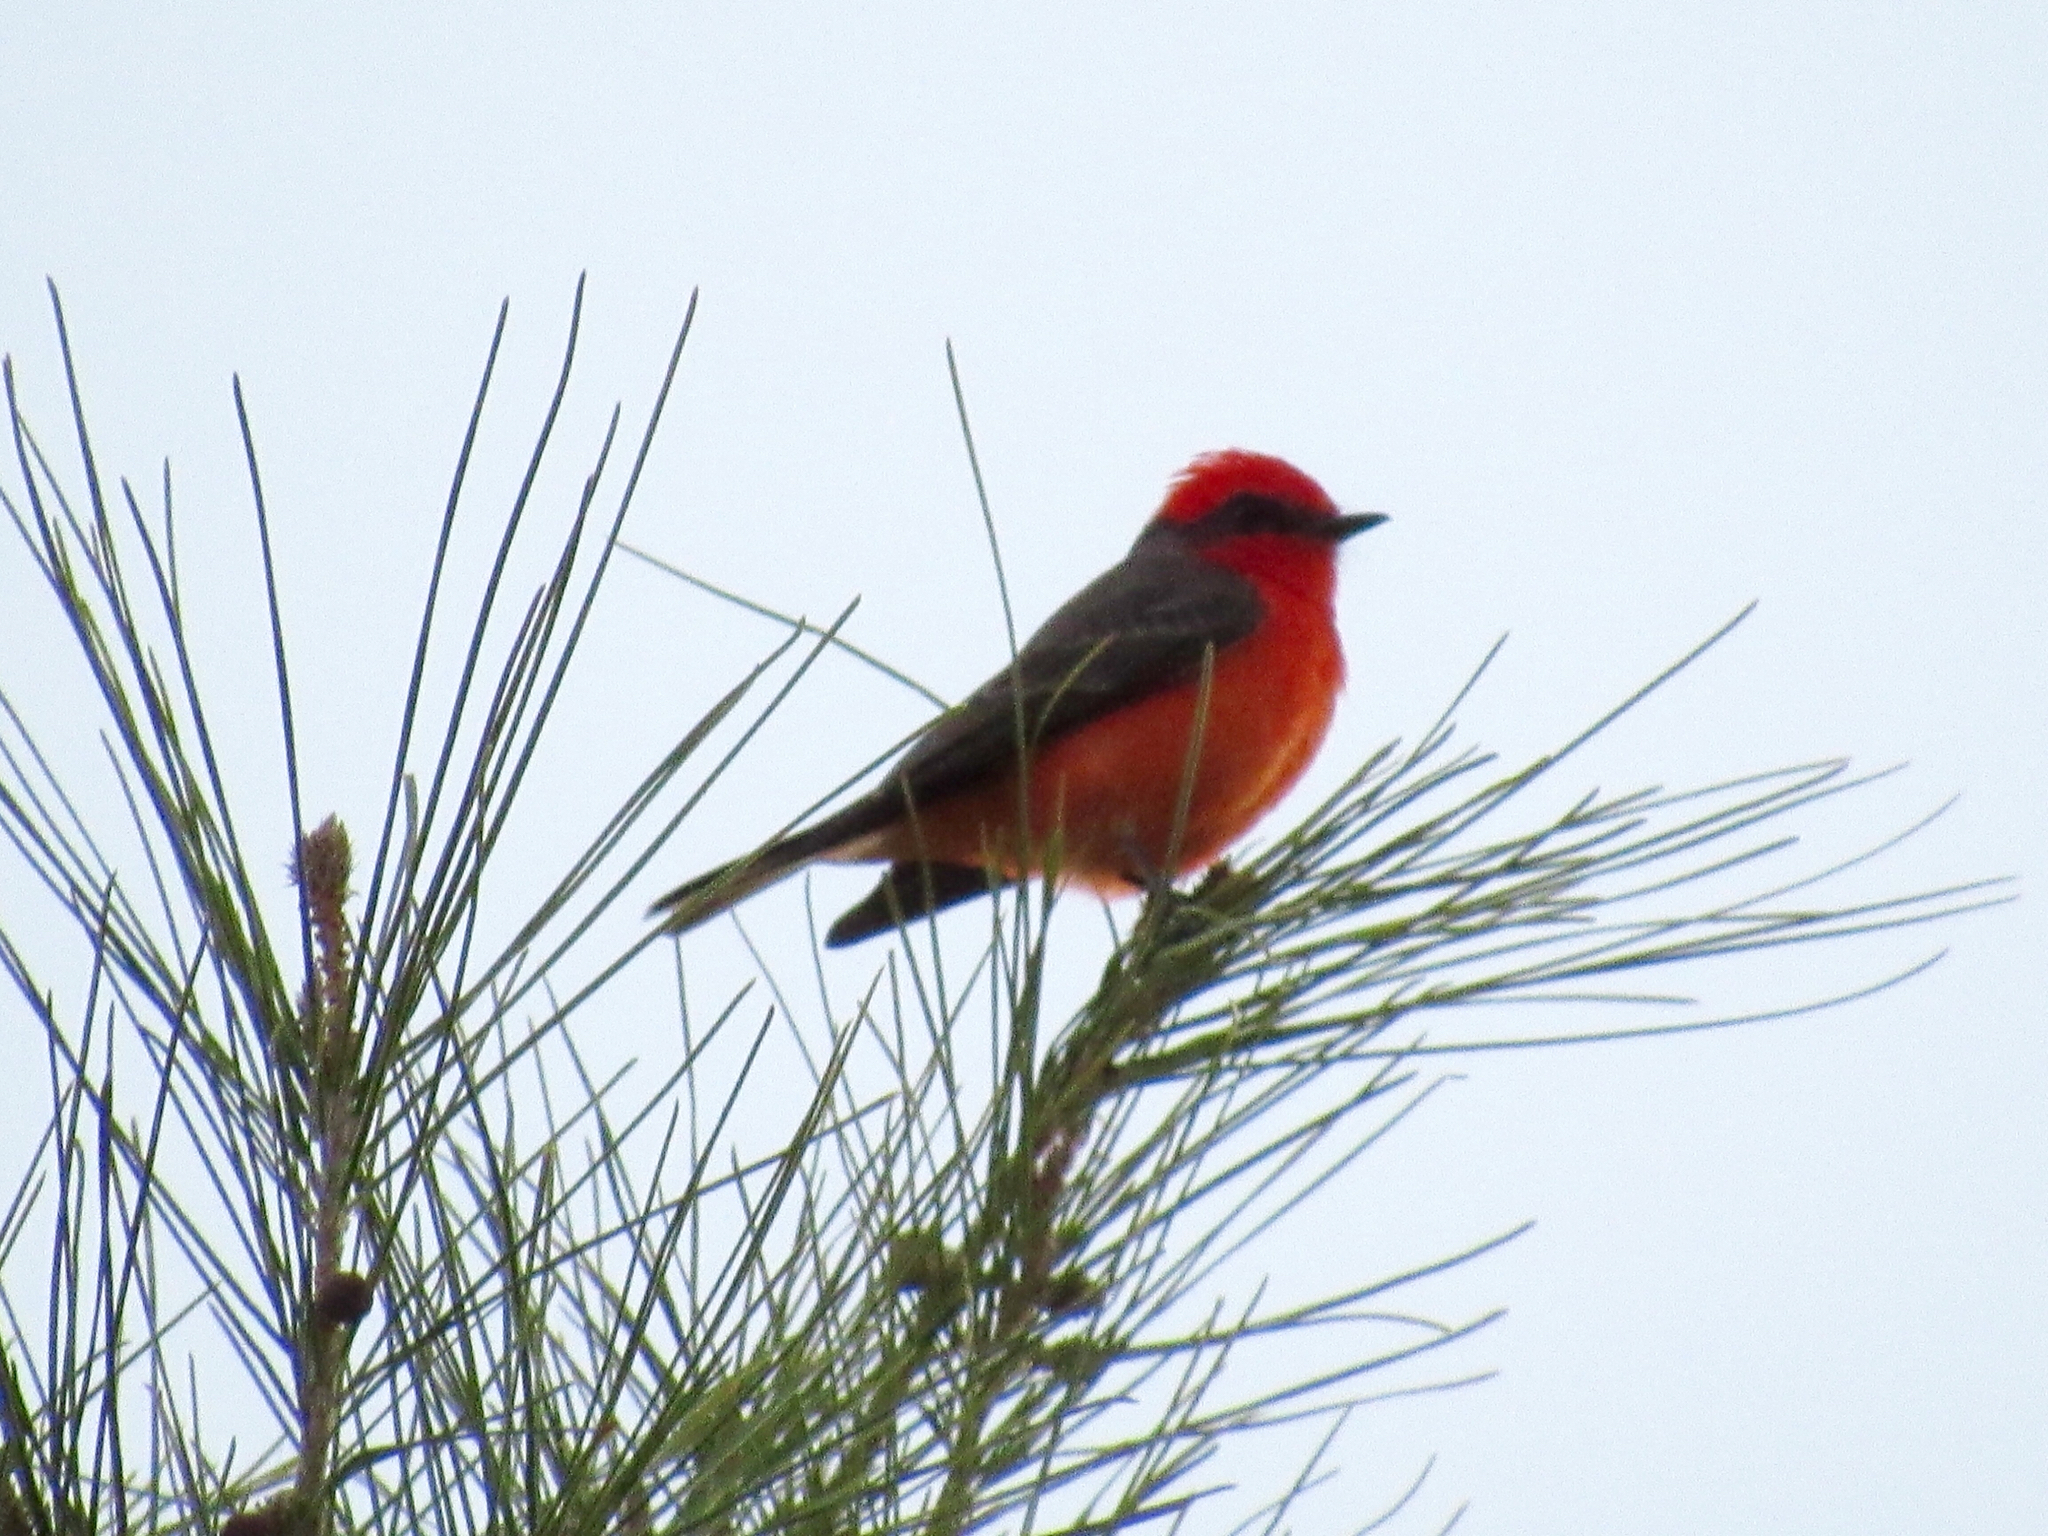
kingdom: Animalia
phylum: Chordata
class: Aves
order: Passeriformes
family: Tyrannidae
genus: Pyrocephalus
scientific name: Pyrocephalus rubinus
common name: Vermilion flycatcher
